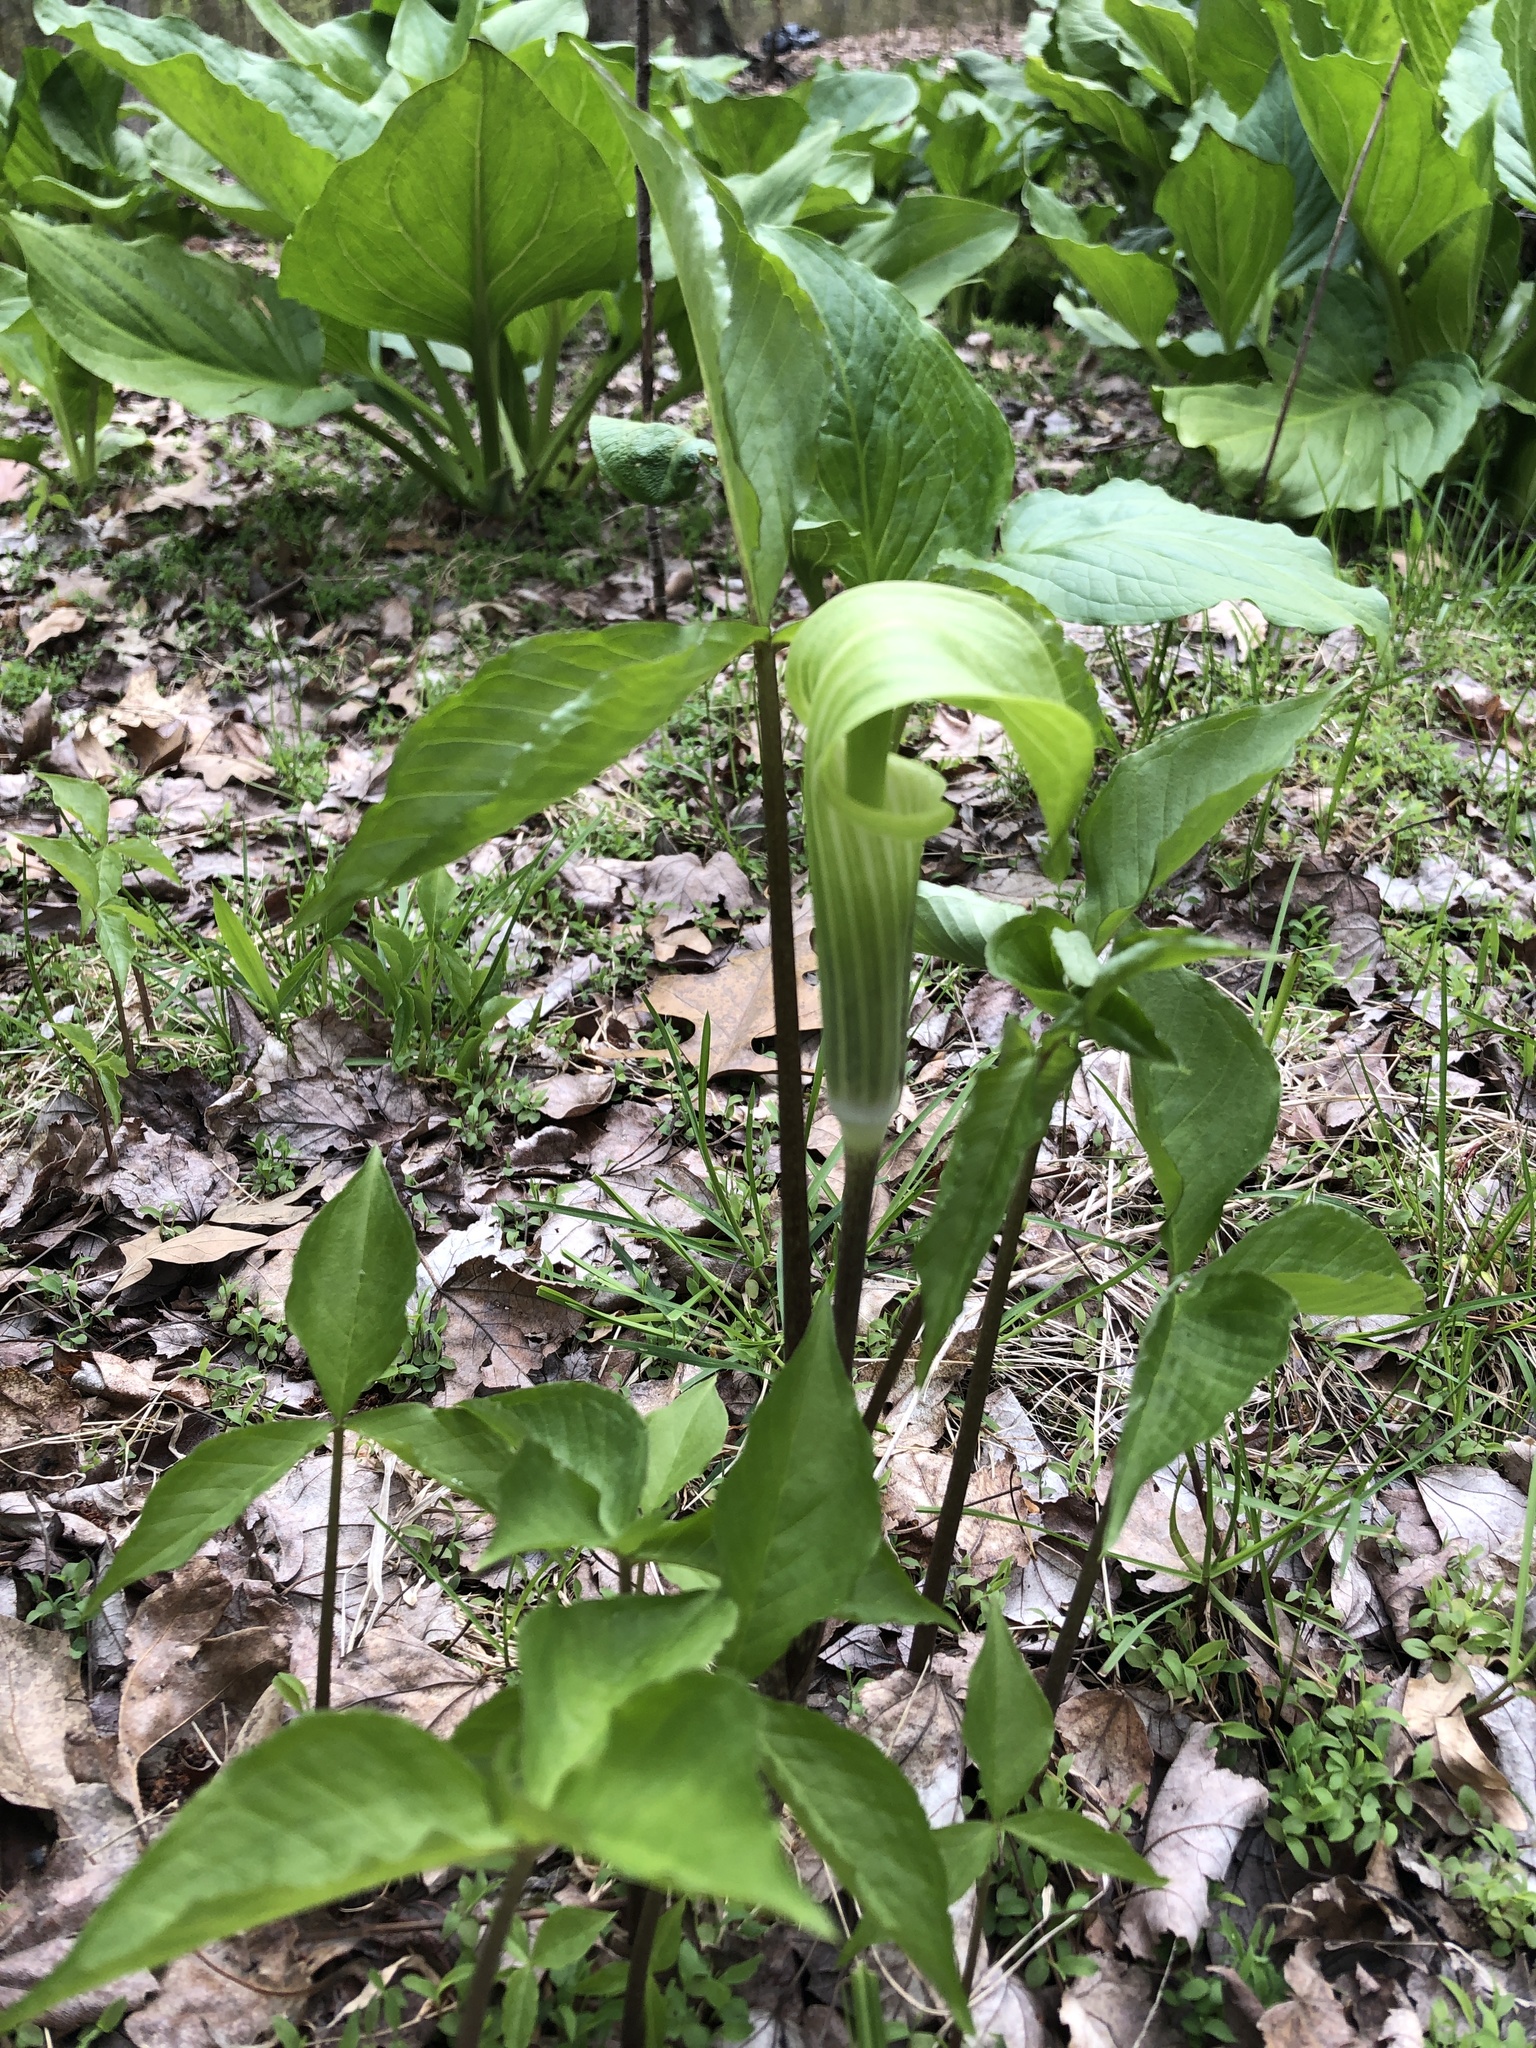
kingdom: Plantae
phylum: Tracheophyta
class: Liliopsida
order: Alismatales
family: Araceae
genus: Arisaema
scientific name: Arisaema triphyllum
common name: Jack-in-the-pulpit
